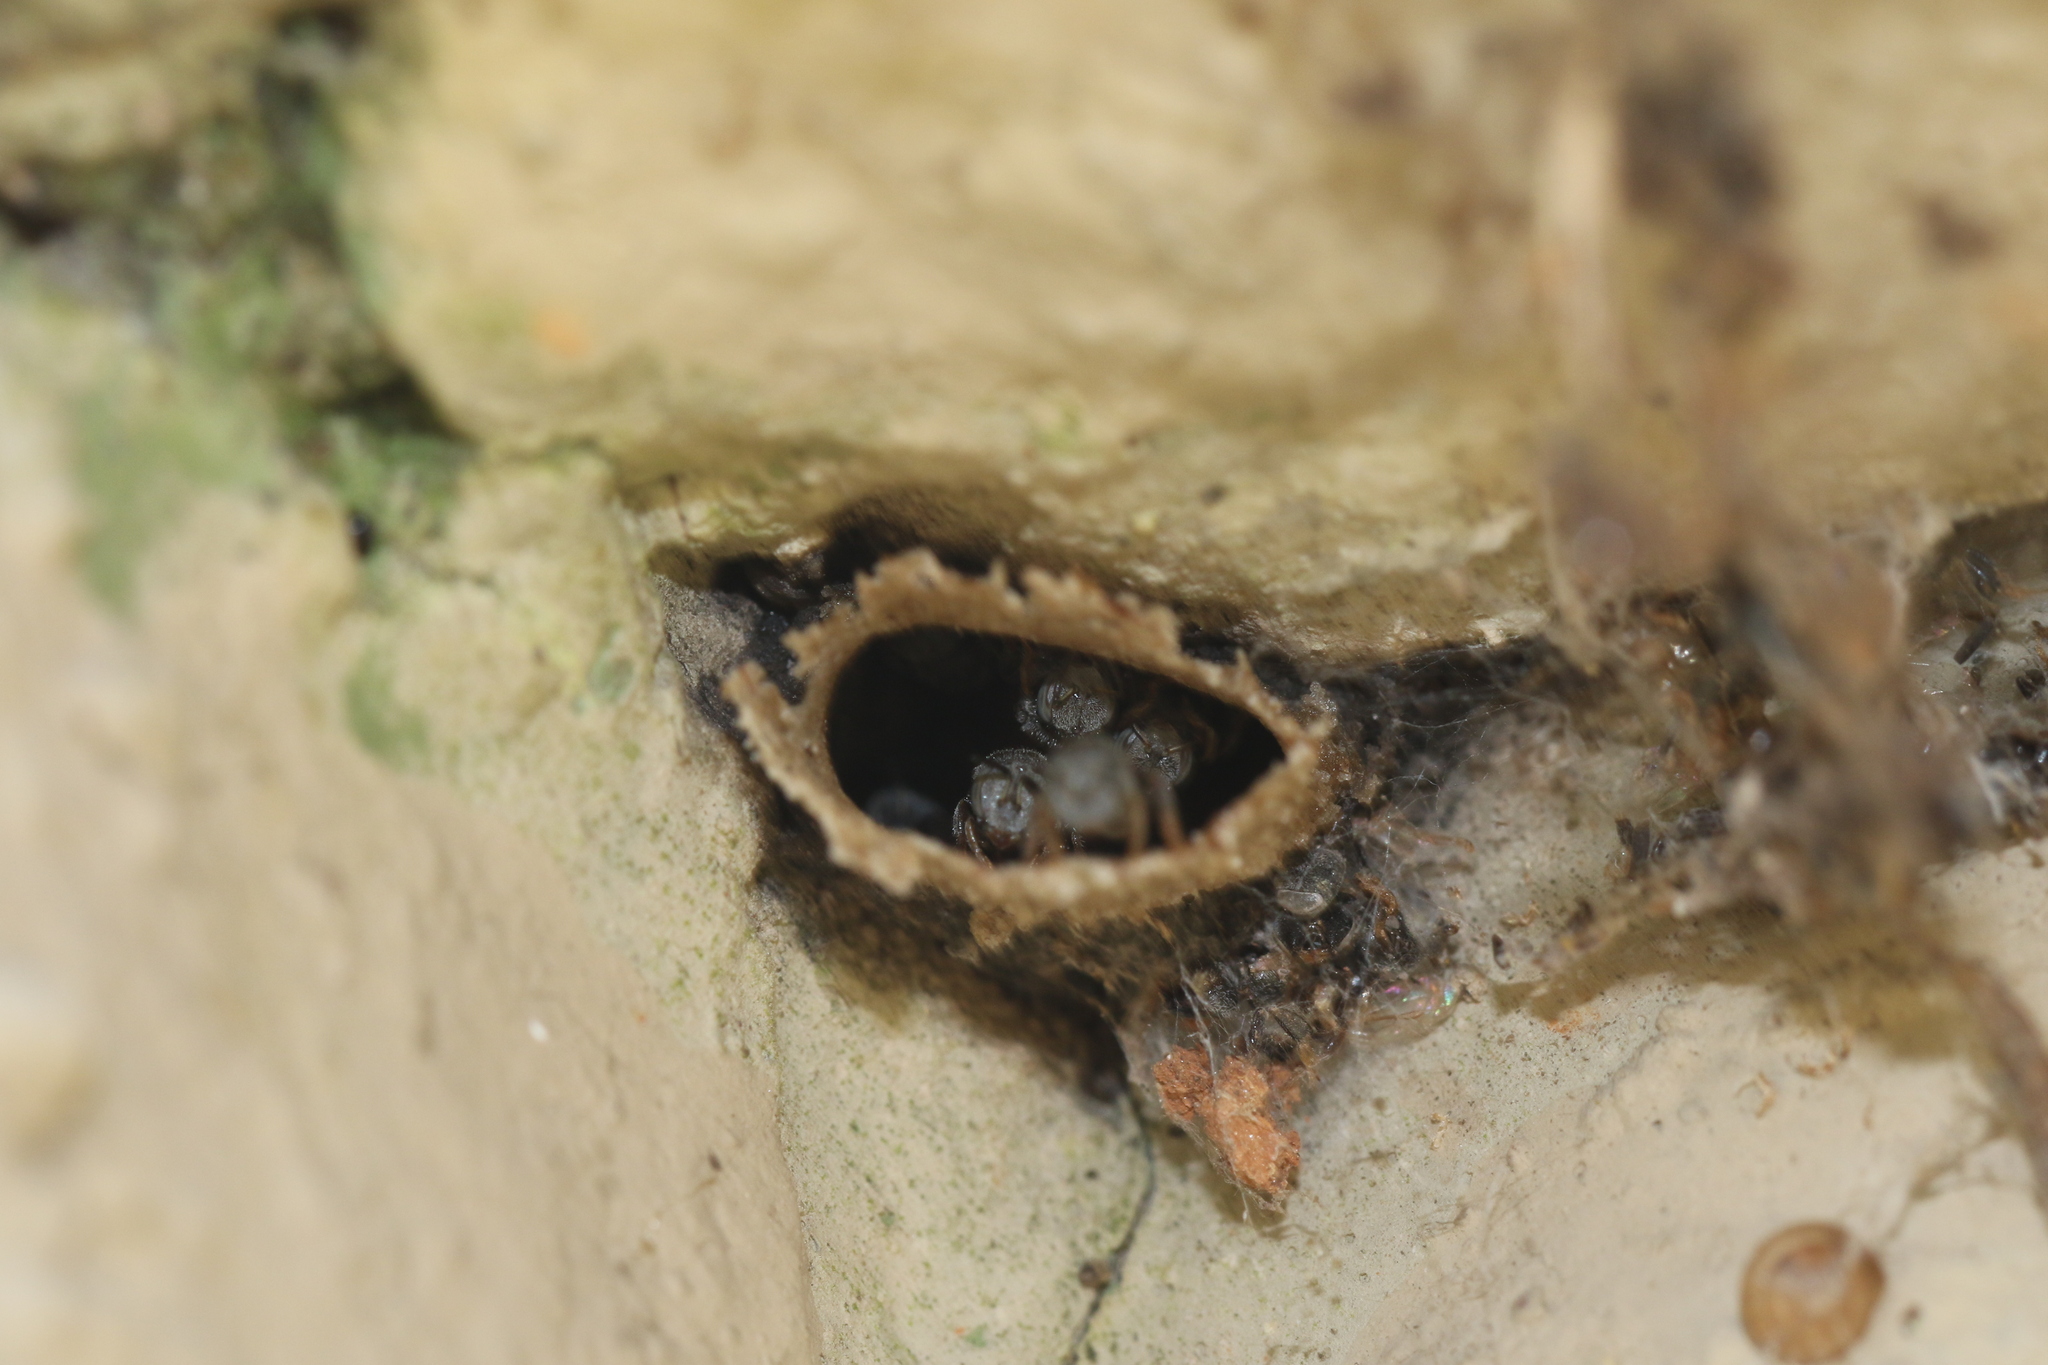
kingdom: Animalia
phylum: Arthropoda
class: Insecta
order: Hymenoptera
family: Apidae
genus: Friesella
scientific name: Friesella schrottkyi
